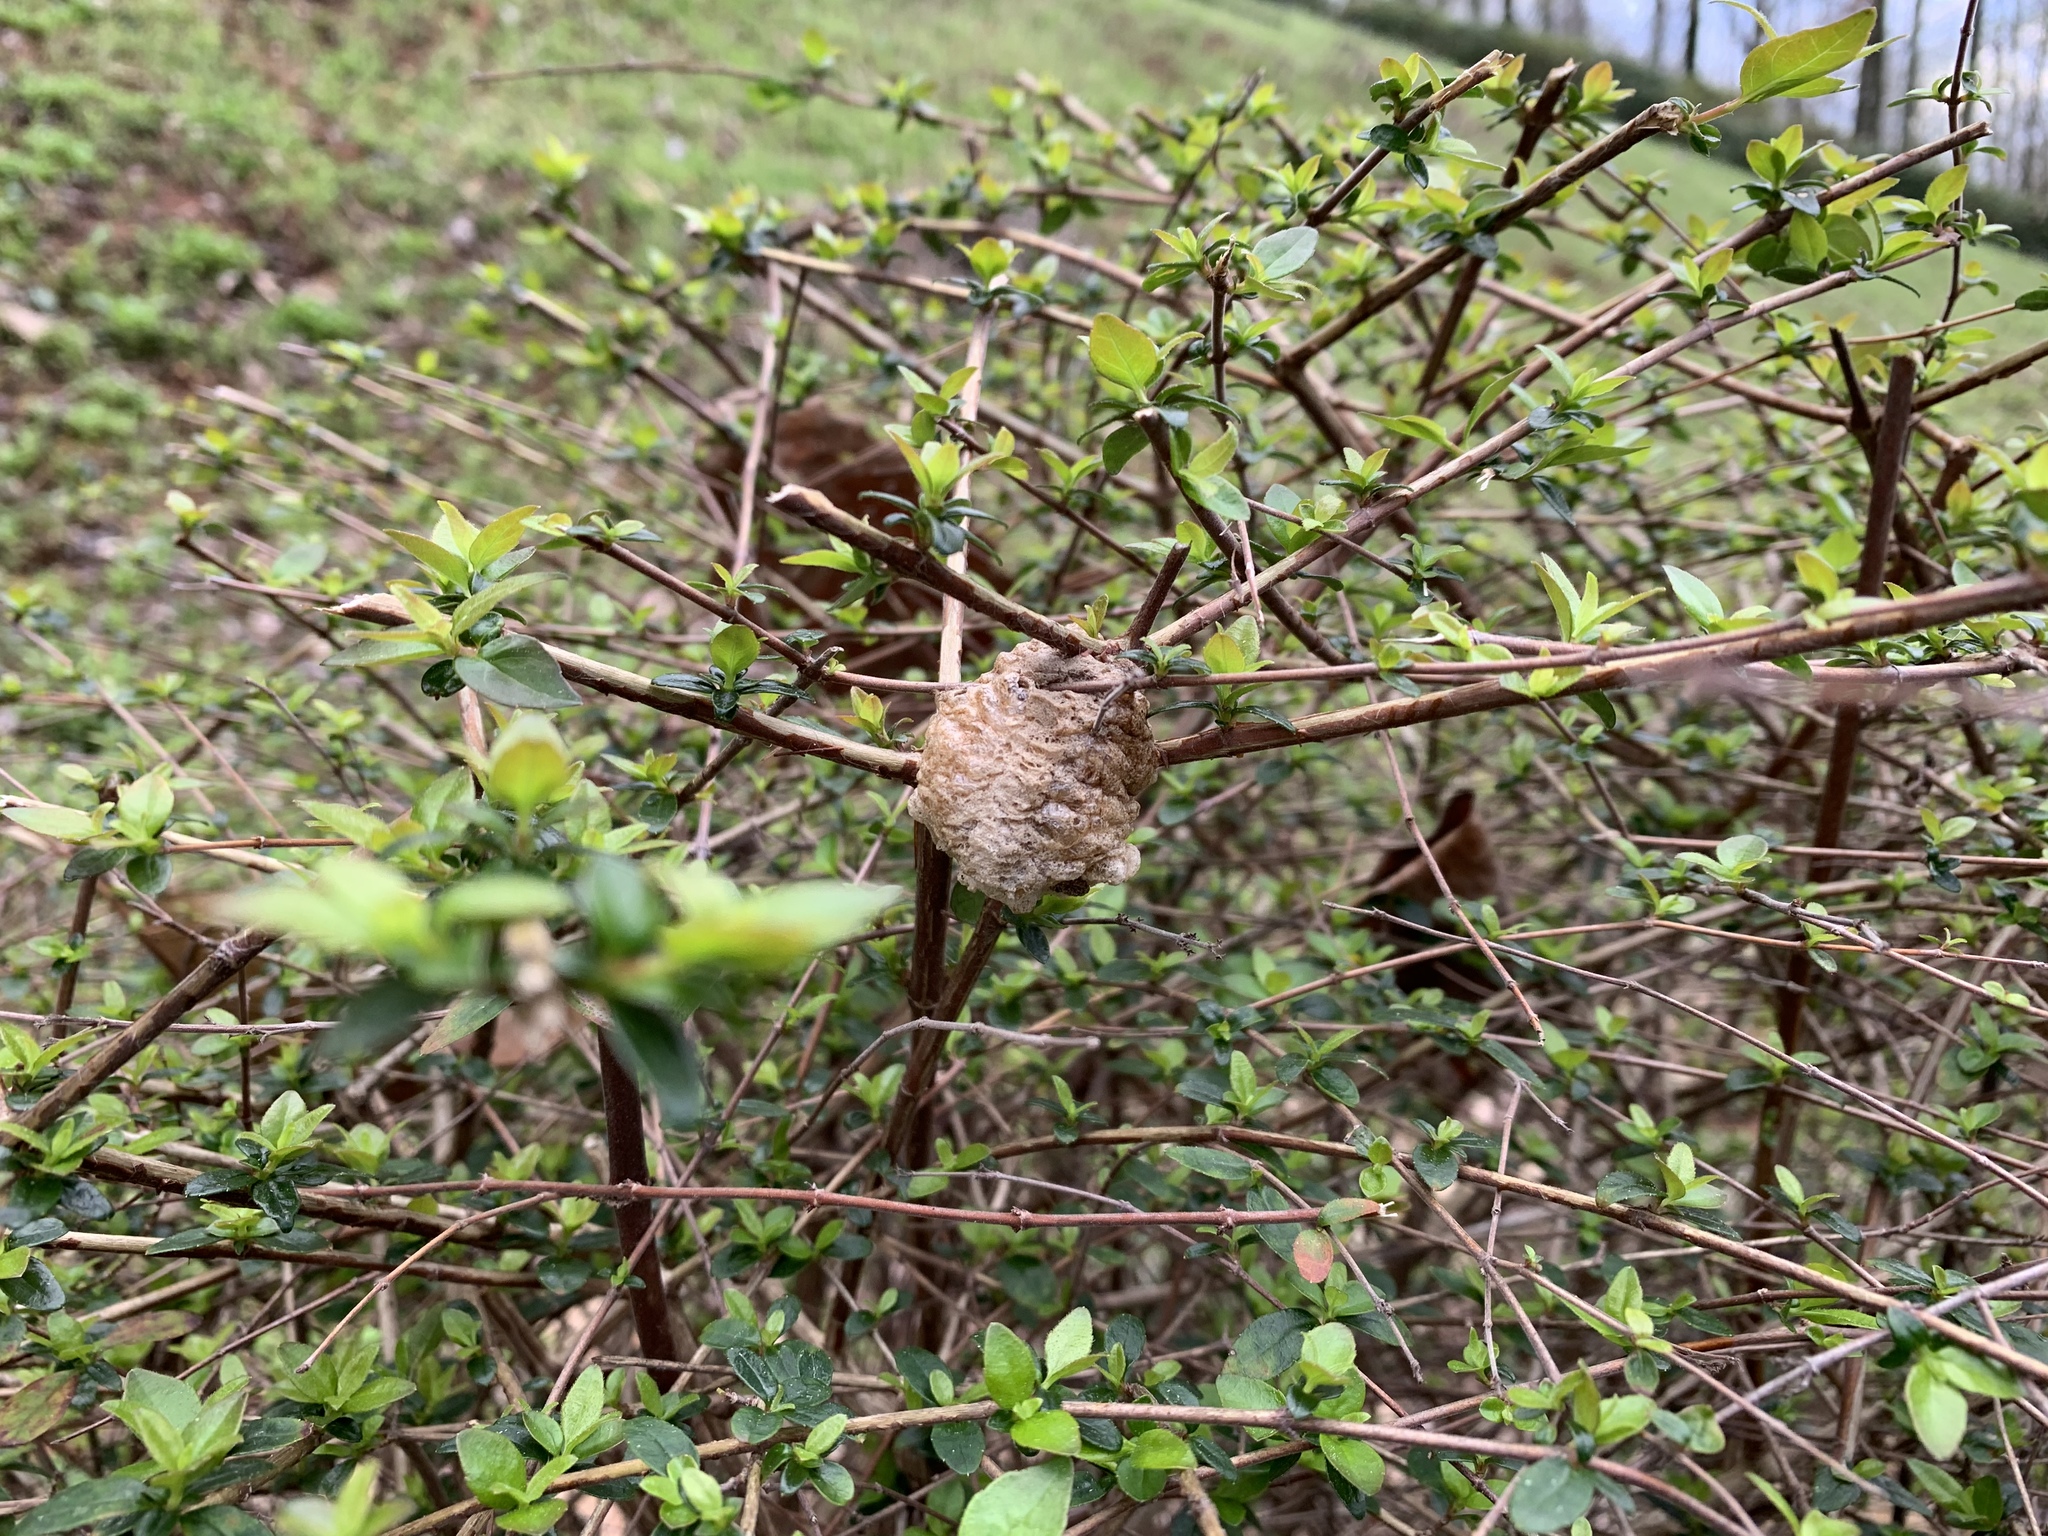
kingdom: Animalia
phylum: Arthropoda
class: Insecta
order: Mantodea
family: Mantidae
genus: Tenodera
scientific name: Tenodera sinensis
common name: Chinese mantis
